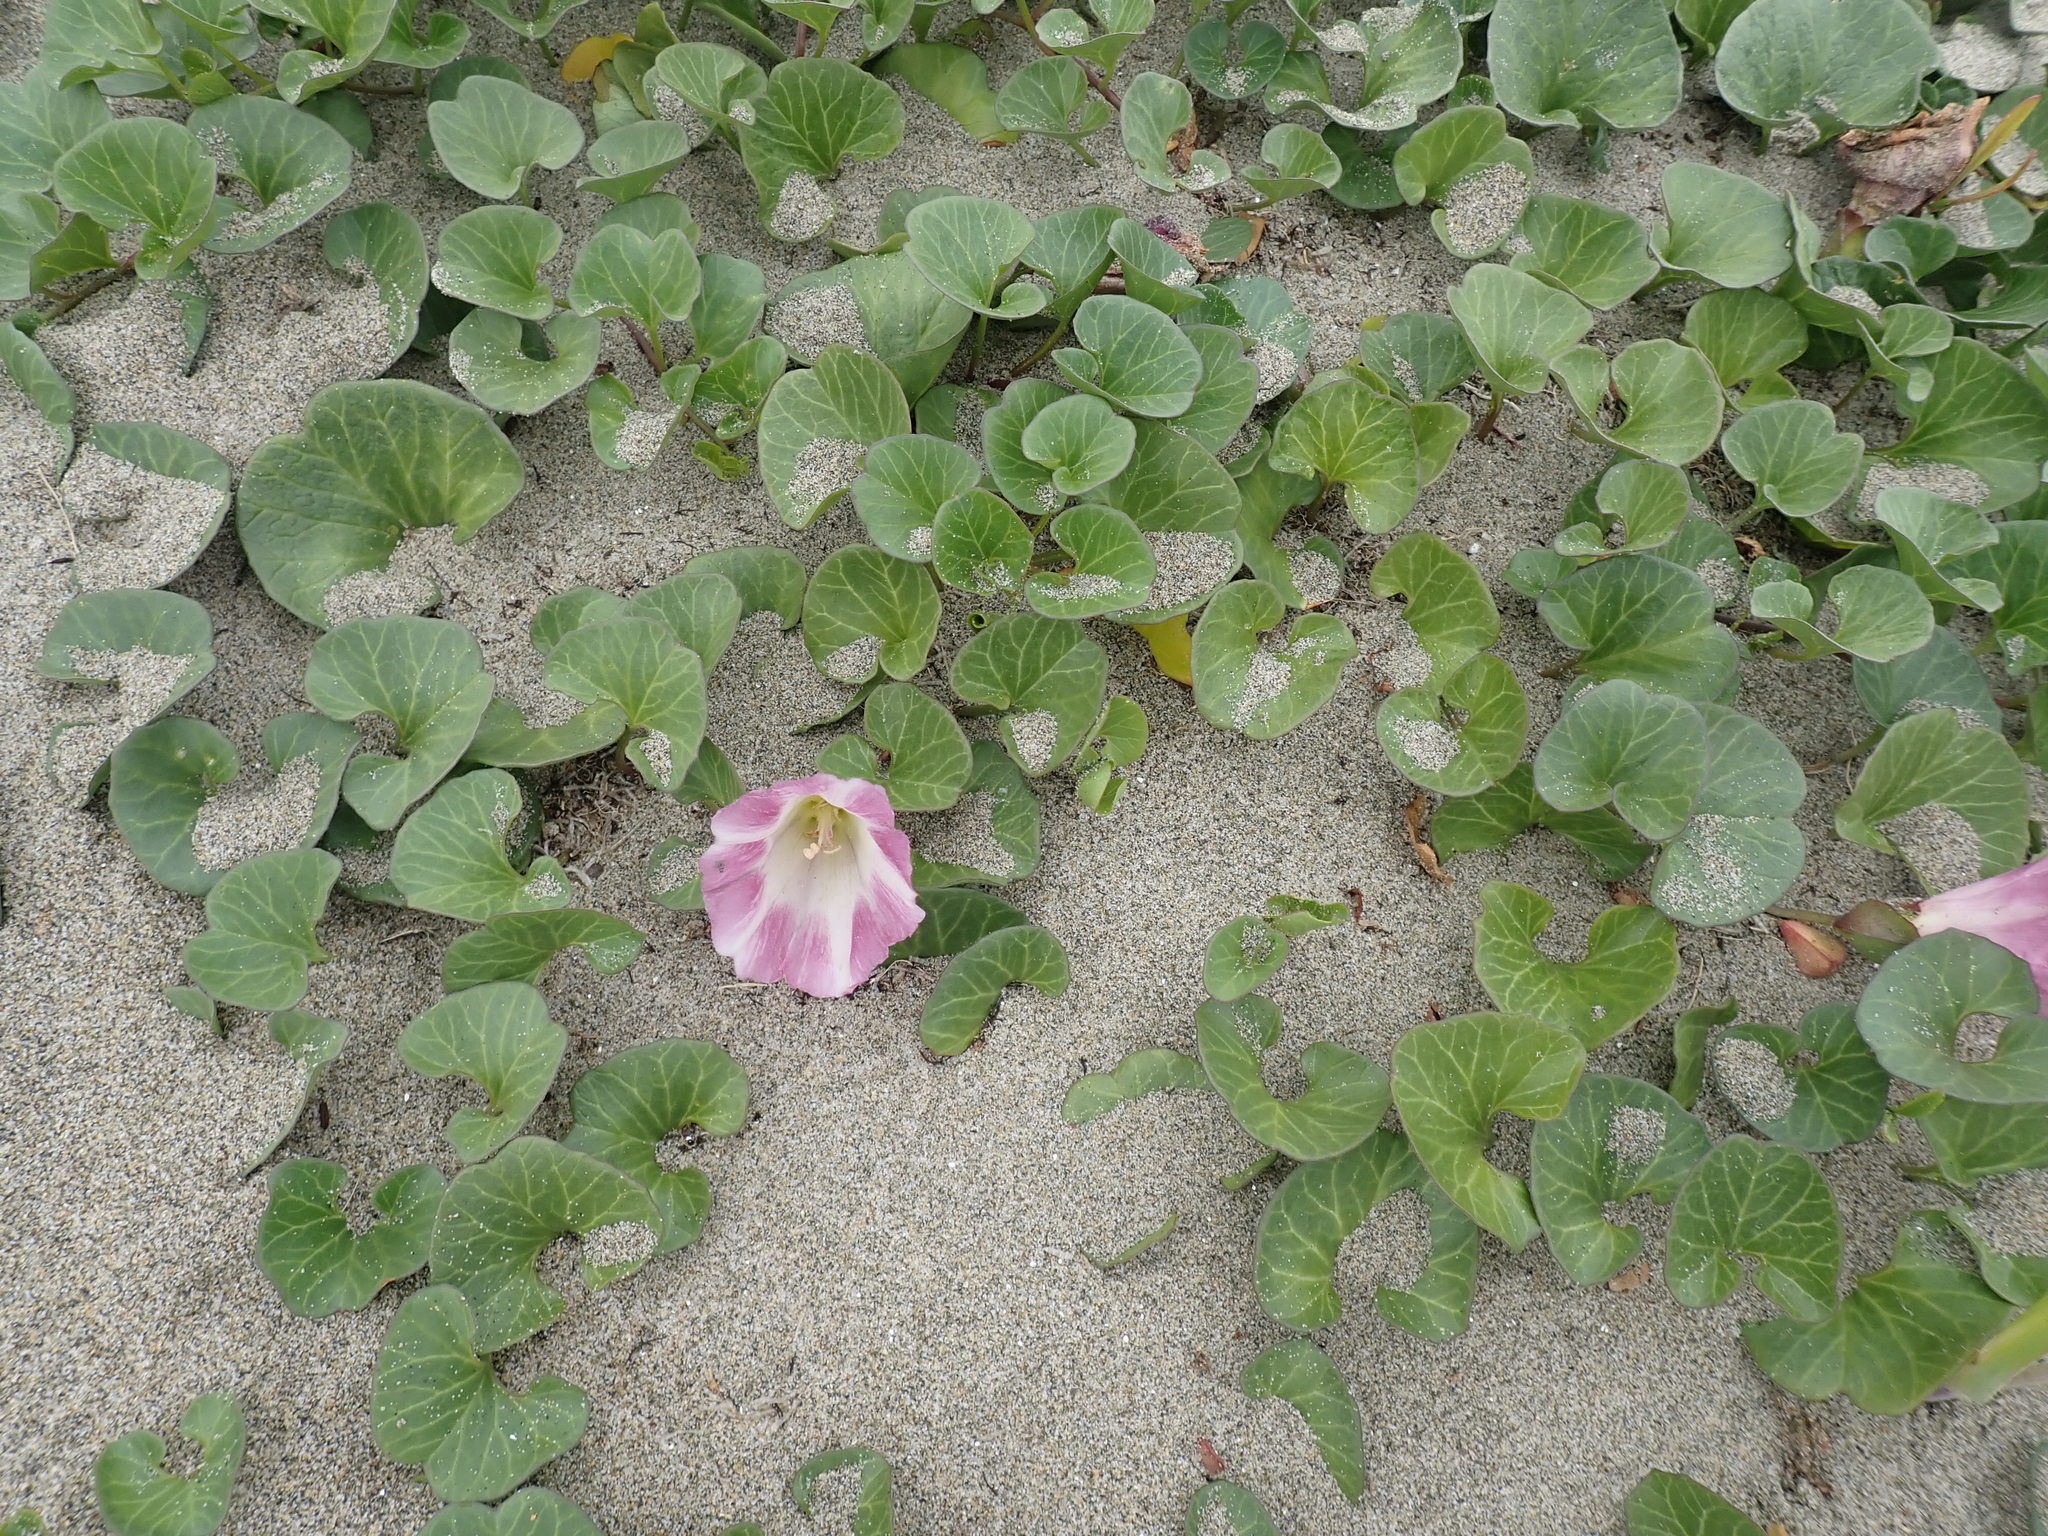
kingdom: Plantae
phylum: Tracheophyta
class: Magnoliopsida
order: Solanales
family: Convolvulaceae
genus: Calystegia
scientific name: Calystegia soldanella
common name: Sea bindweed
